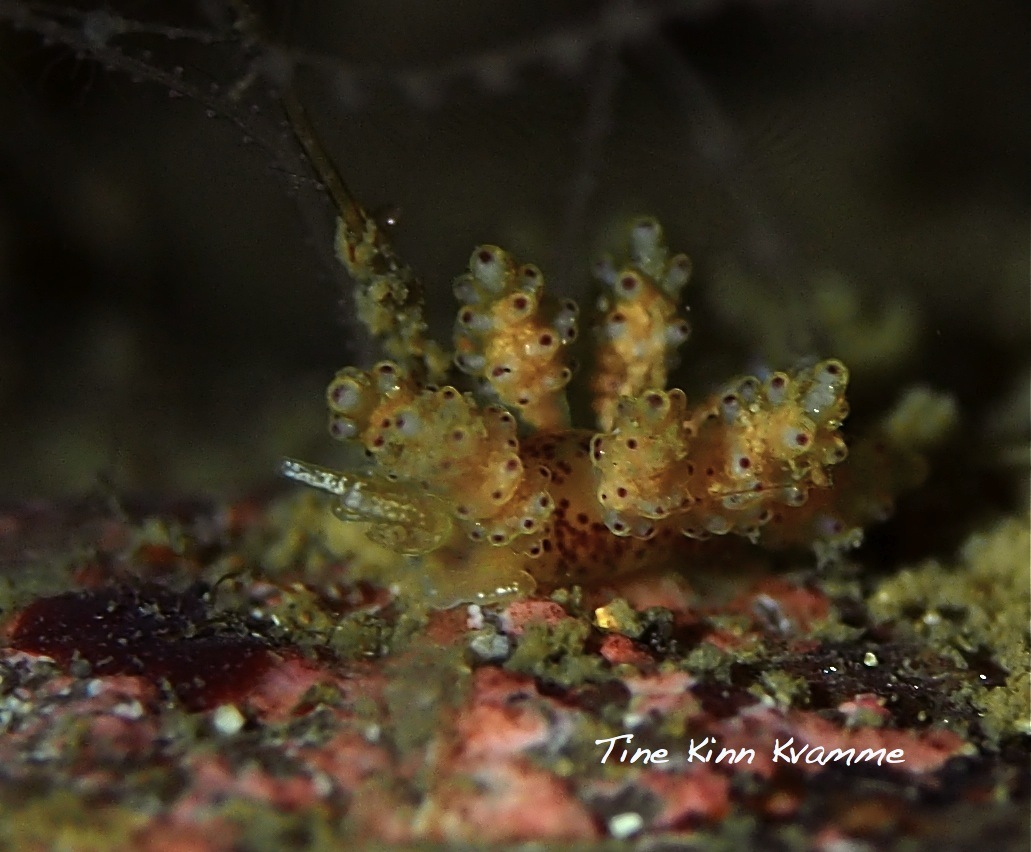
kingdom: Animalia
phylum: Mollusca
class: Gastropoda
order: Nudibranchia
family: Dotidae
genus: Doto
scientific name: Doto maculata
